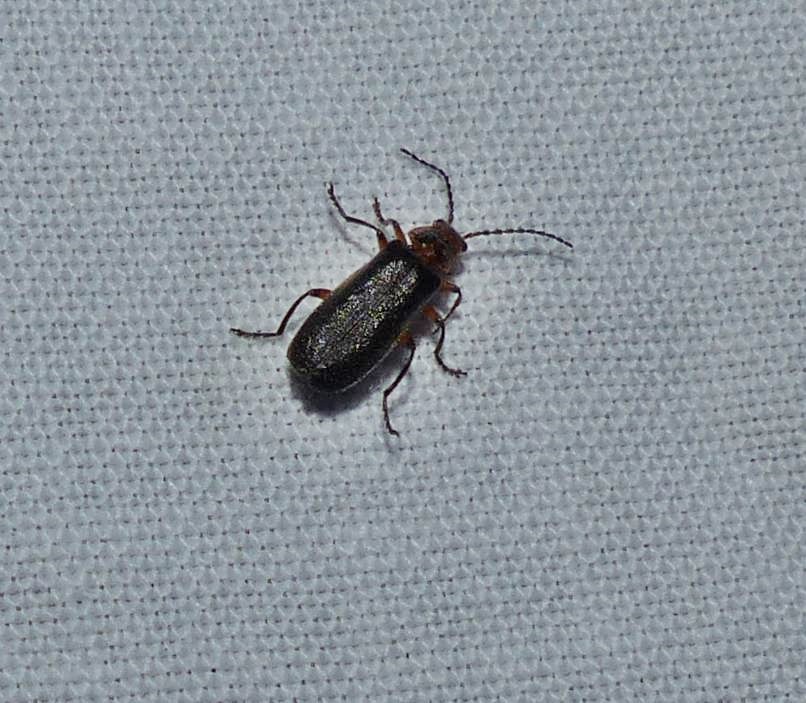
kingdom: Animalia
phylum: Arthropoda
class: Insecta
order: Coleoptera
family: Cantharidae
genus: Atalantycha
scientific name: Atalantycha bilineata
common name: Two-lined leatherwing
